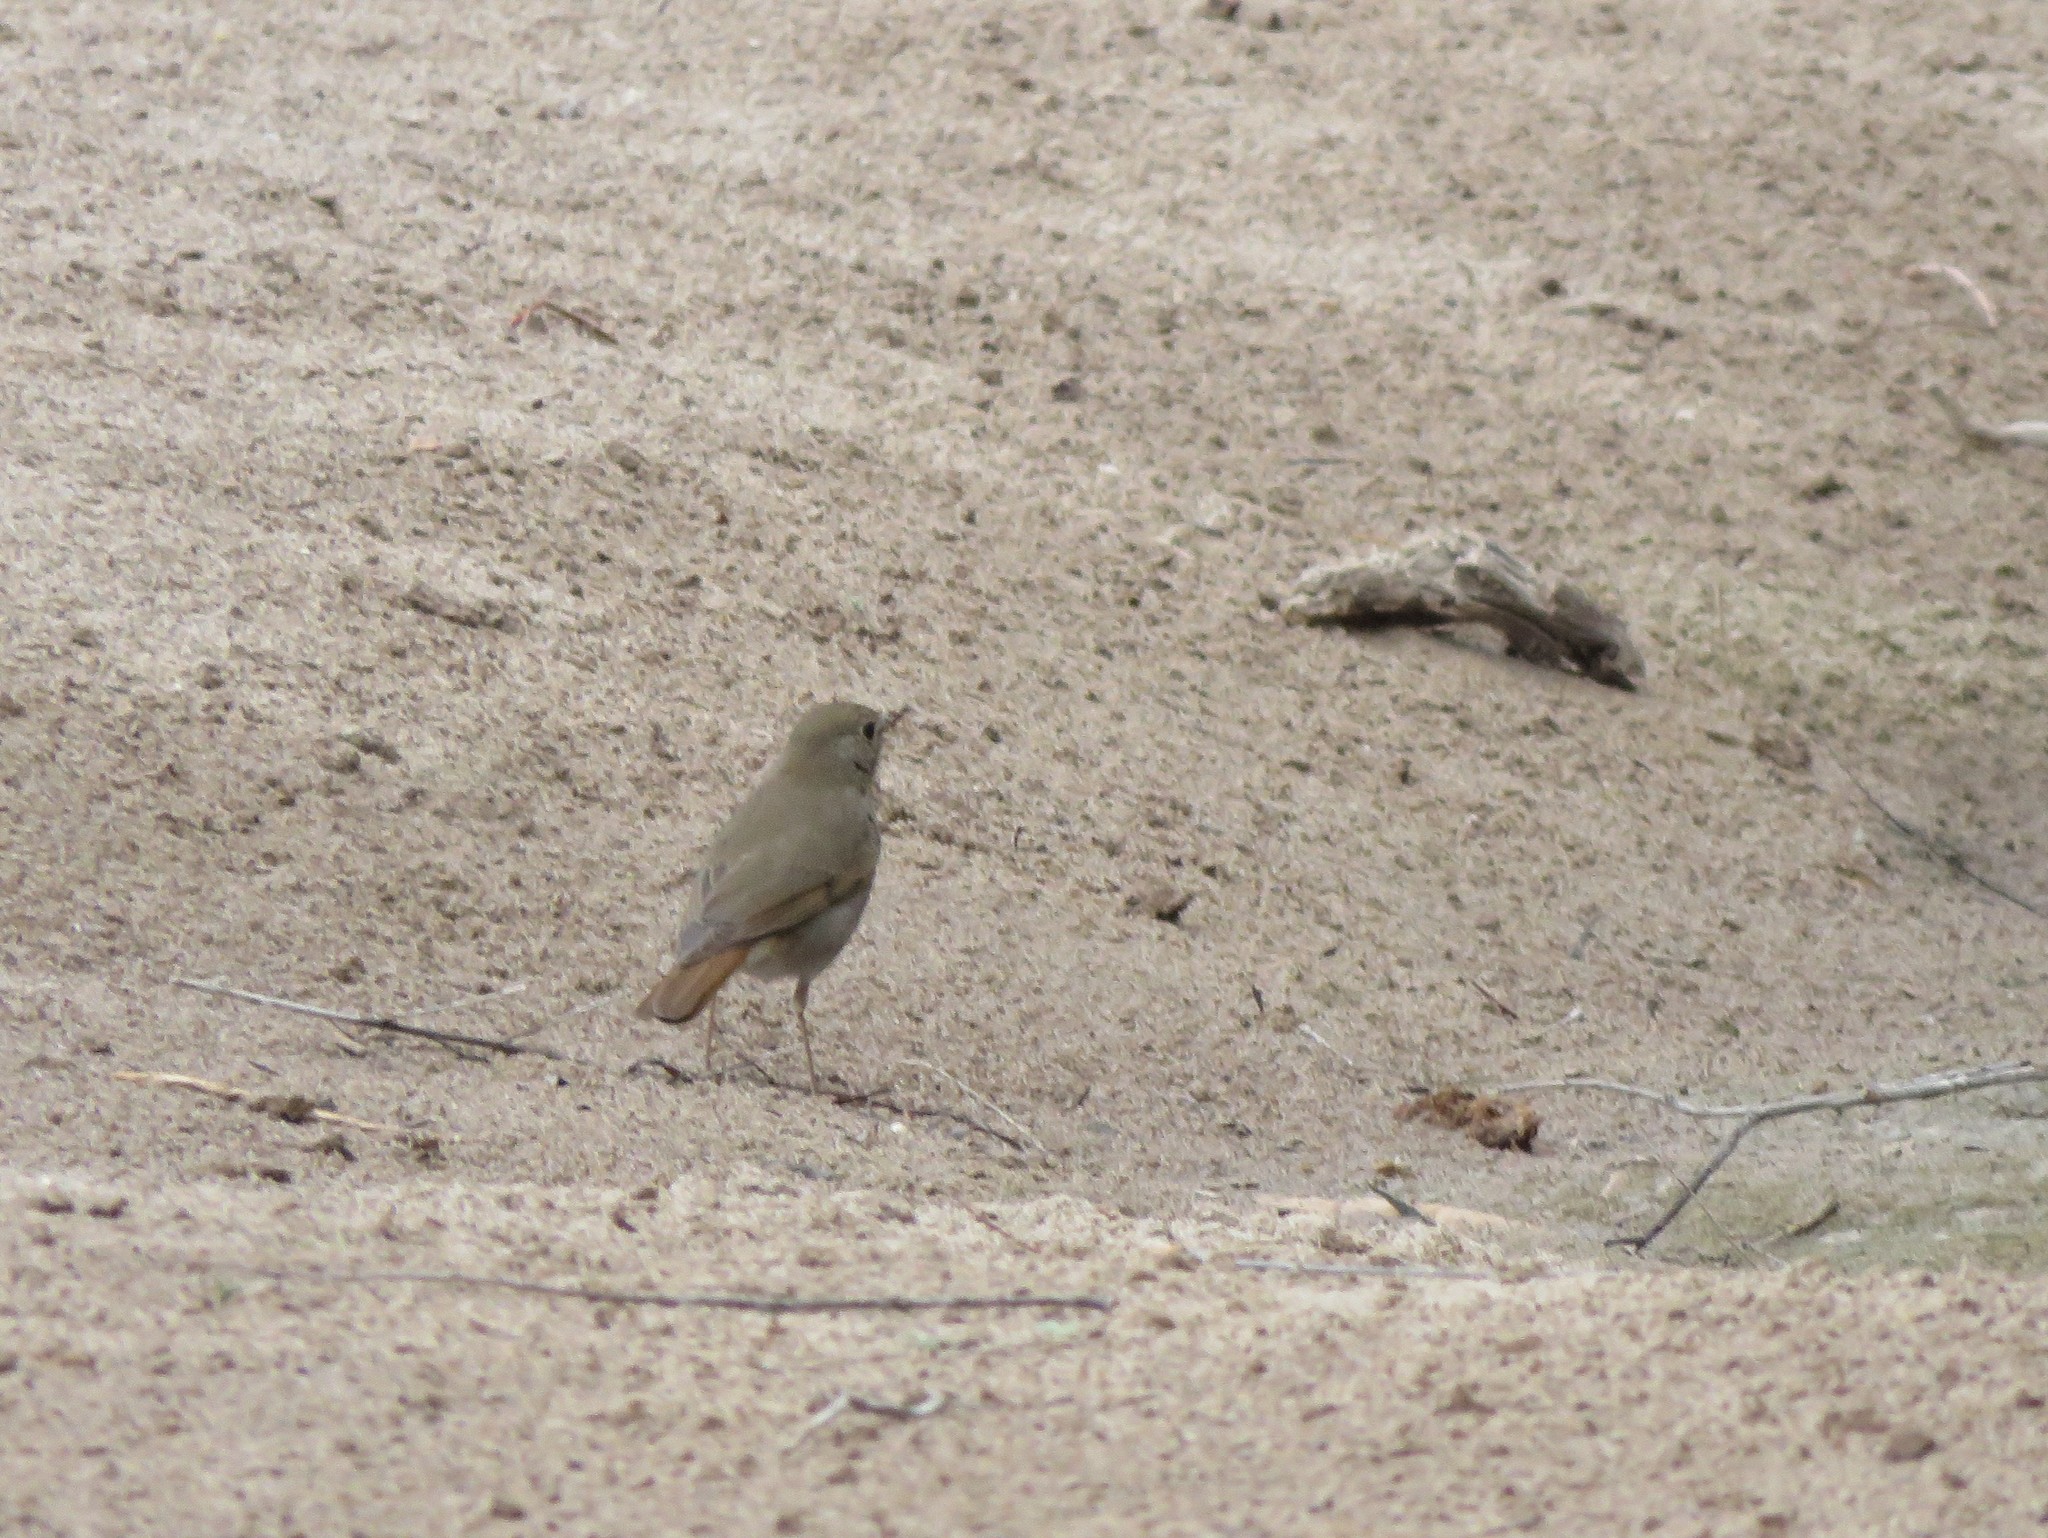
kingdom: Animalia
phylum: Chordata
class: Aves
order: Passeriformes
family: Turdidae
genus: Catharus
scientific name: Catharus guttatus
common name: Hermit thrush
